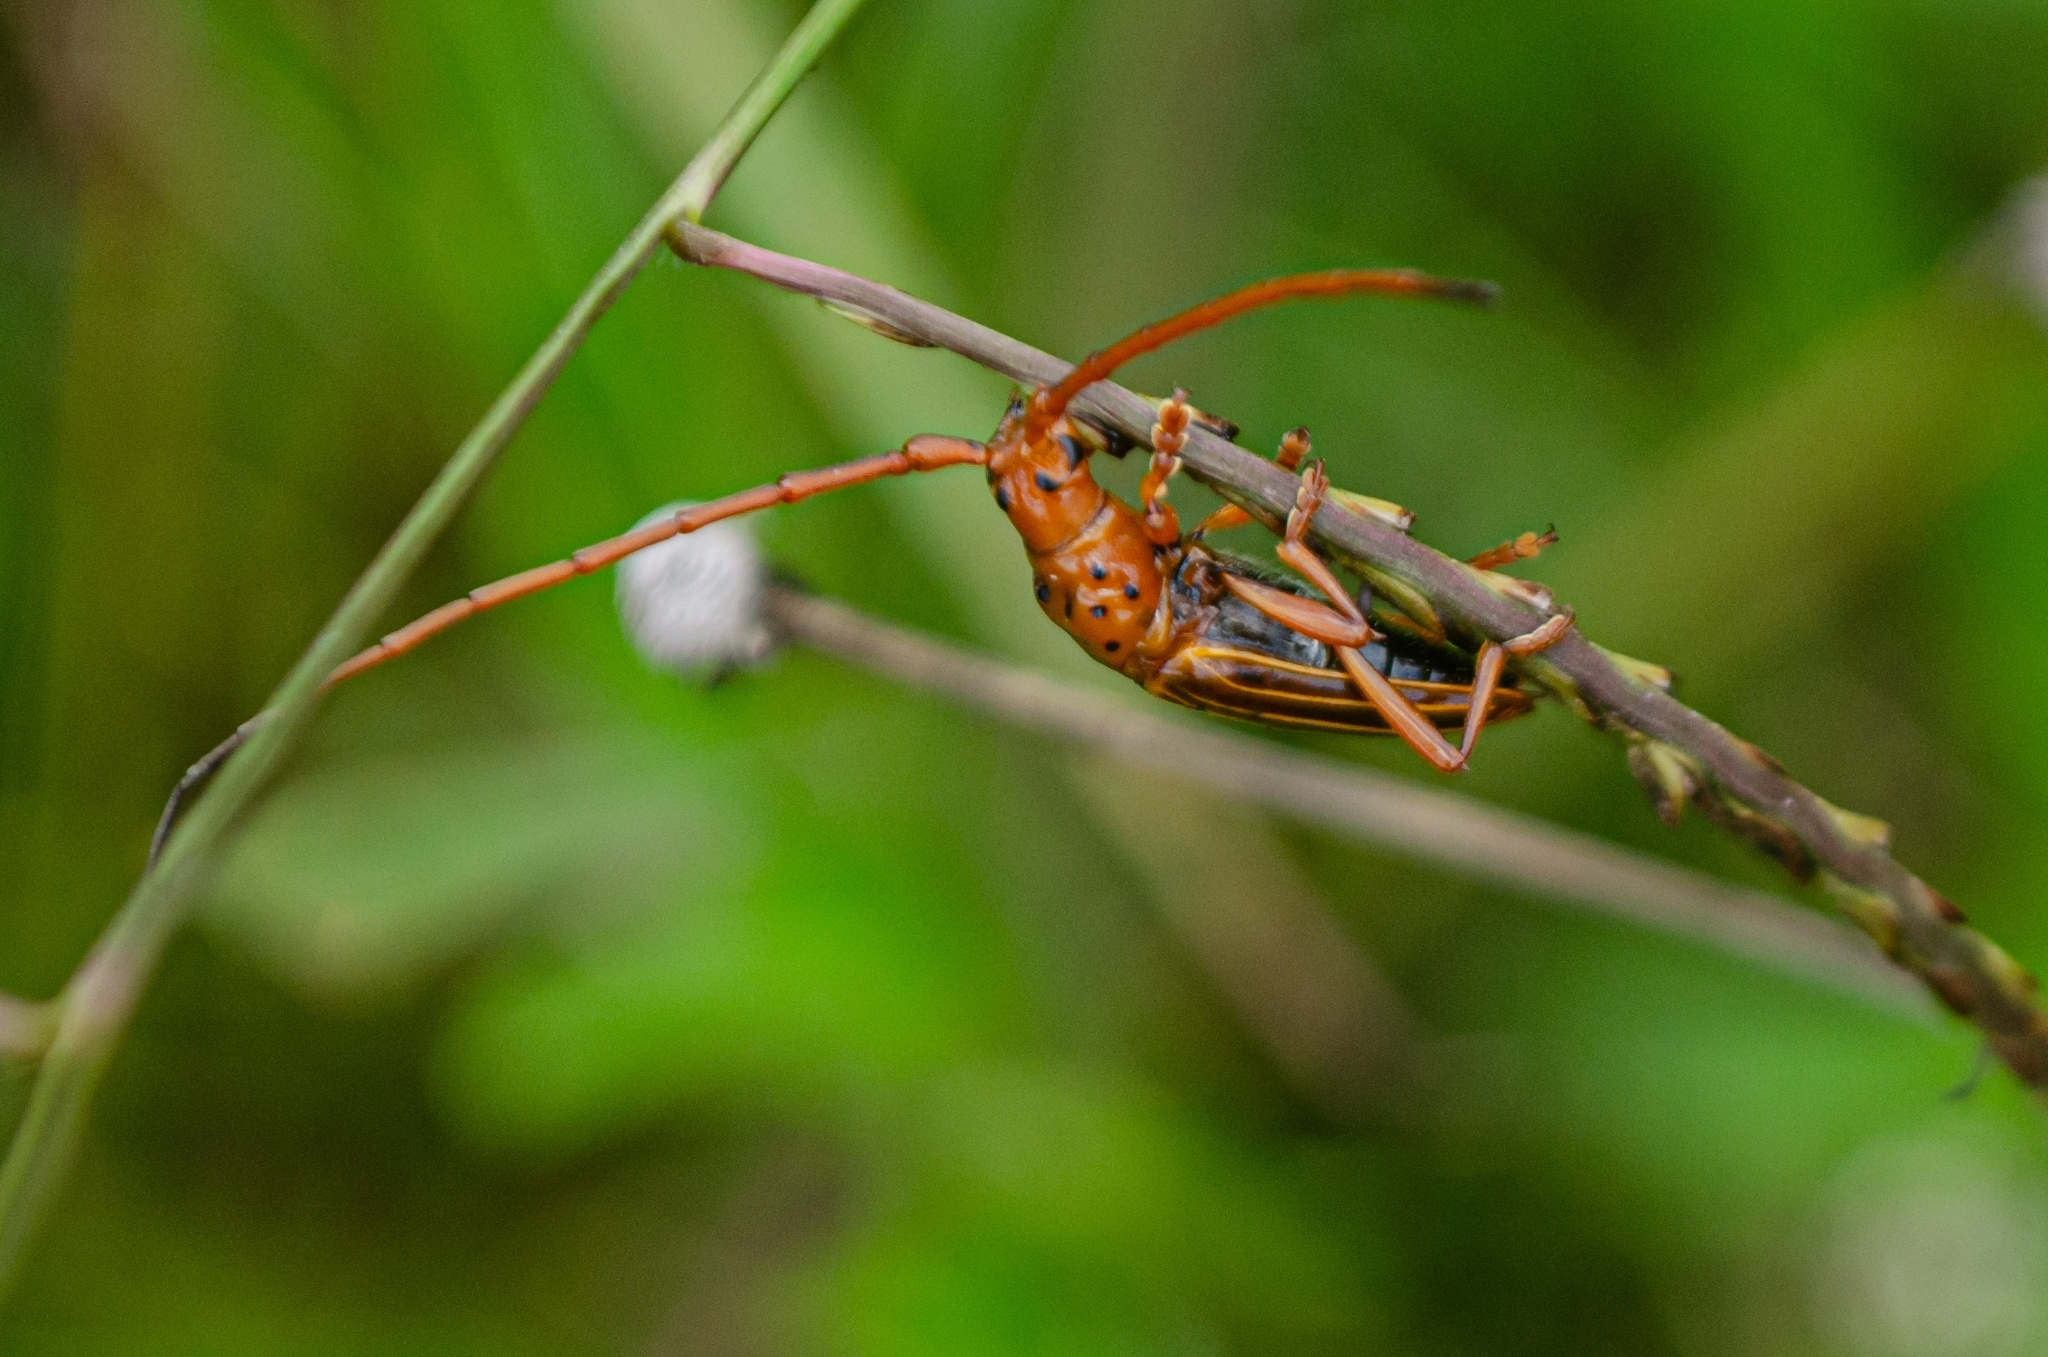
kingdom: Animalia
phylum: Arthropoda
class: Insecta
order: Coleoptera
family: Cerambycidae
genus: Chydarteres
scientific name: Chydarteres striatus
